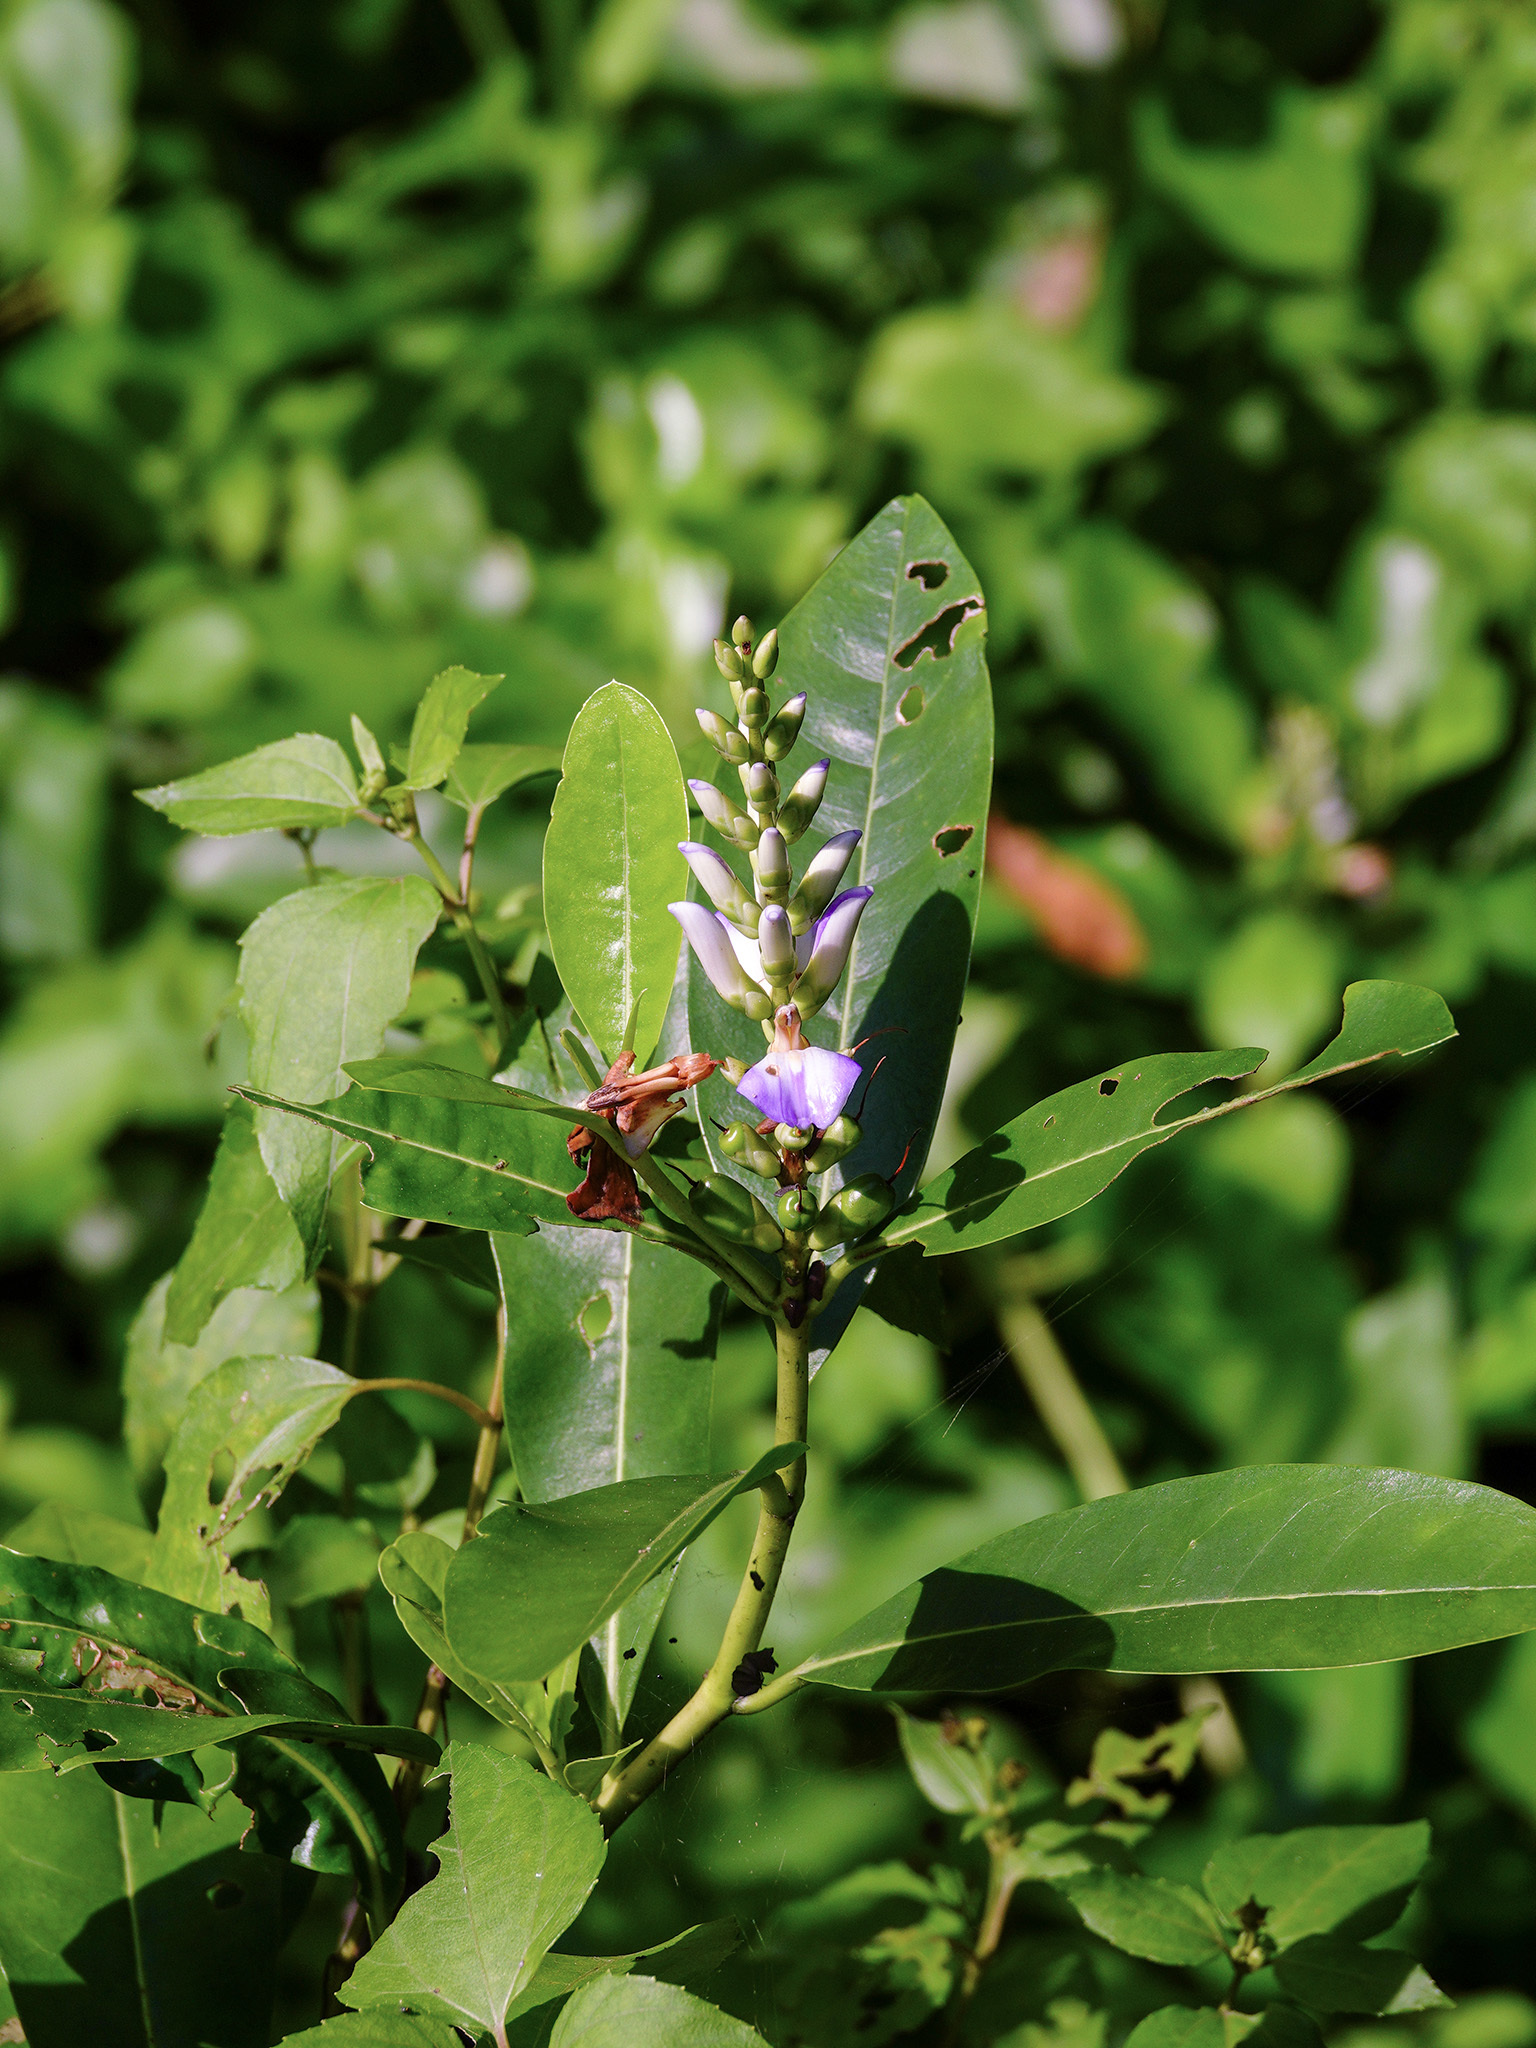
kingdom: Plantae
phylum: Tracheophyta
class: Magnoliopsida
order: Lamiales
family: Acanthaceae
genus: Acanthus
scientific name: Acanthus ilicifolius
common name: Holy mangrove
